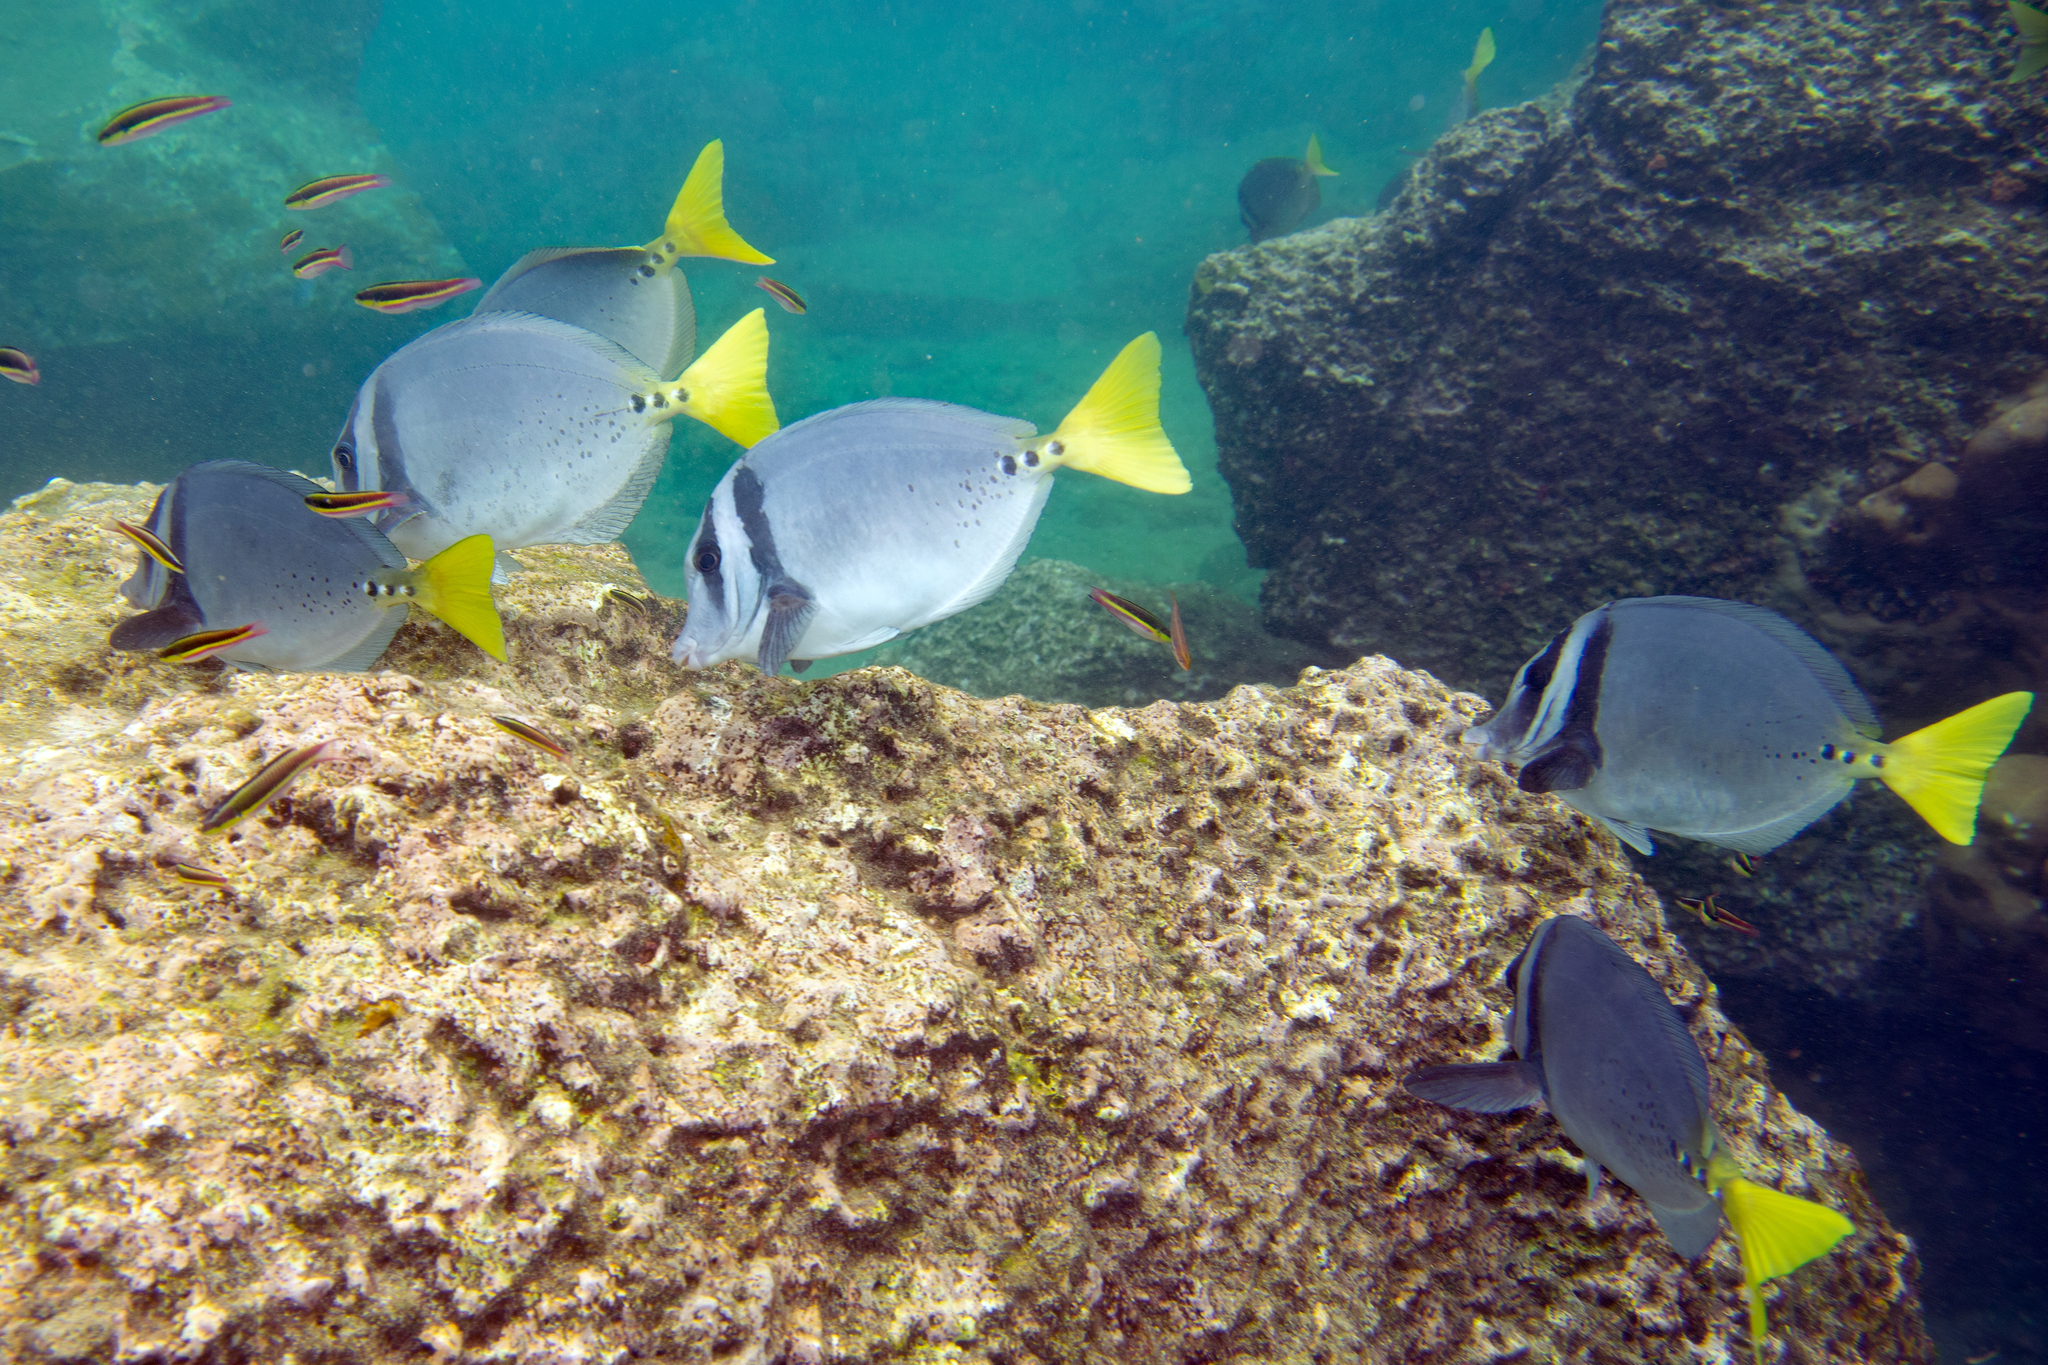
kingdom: Animalia
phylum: Chordata
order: Perciformes
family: Acanthuridae
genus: Prionurus
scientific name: Prionurus laticlavius
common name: Razor surgeonfish
